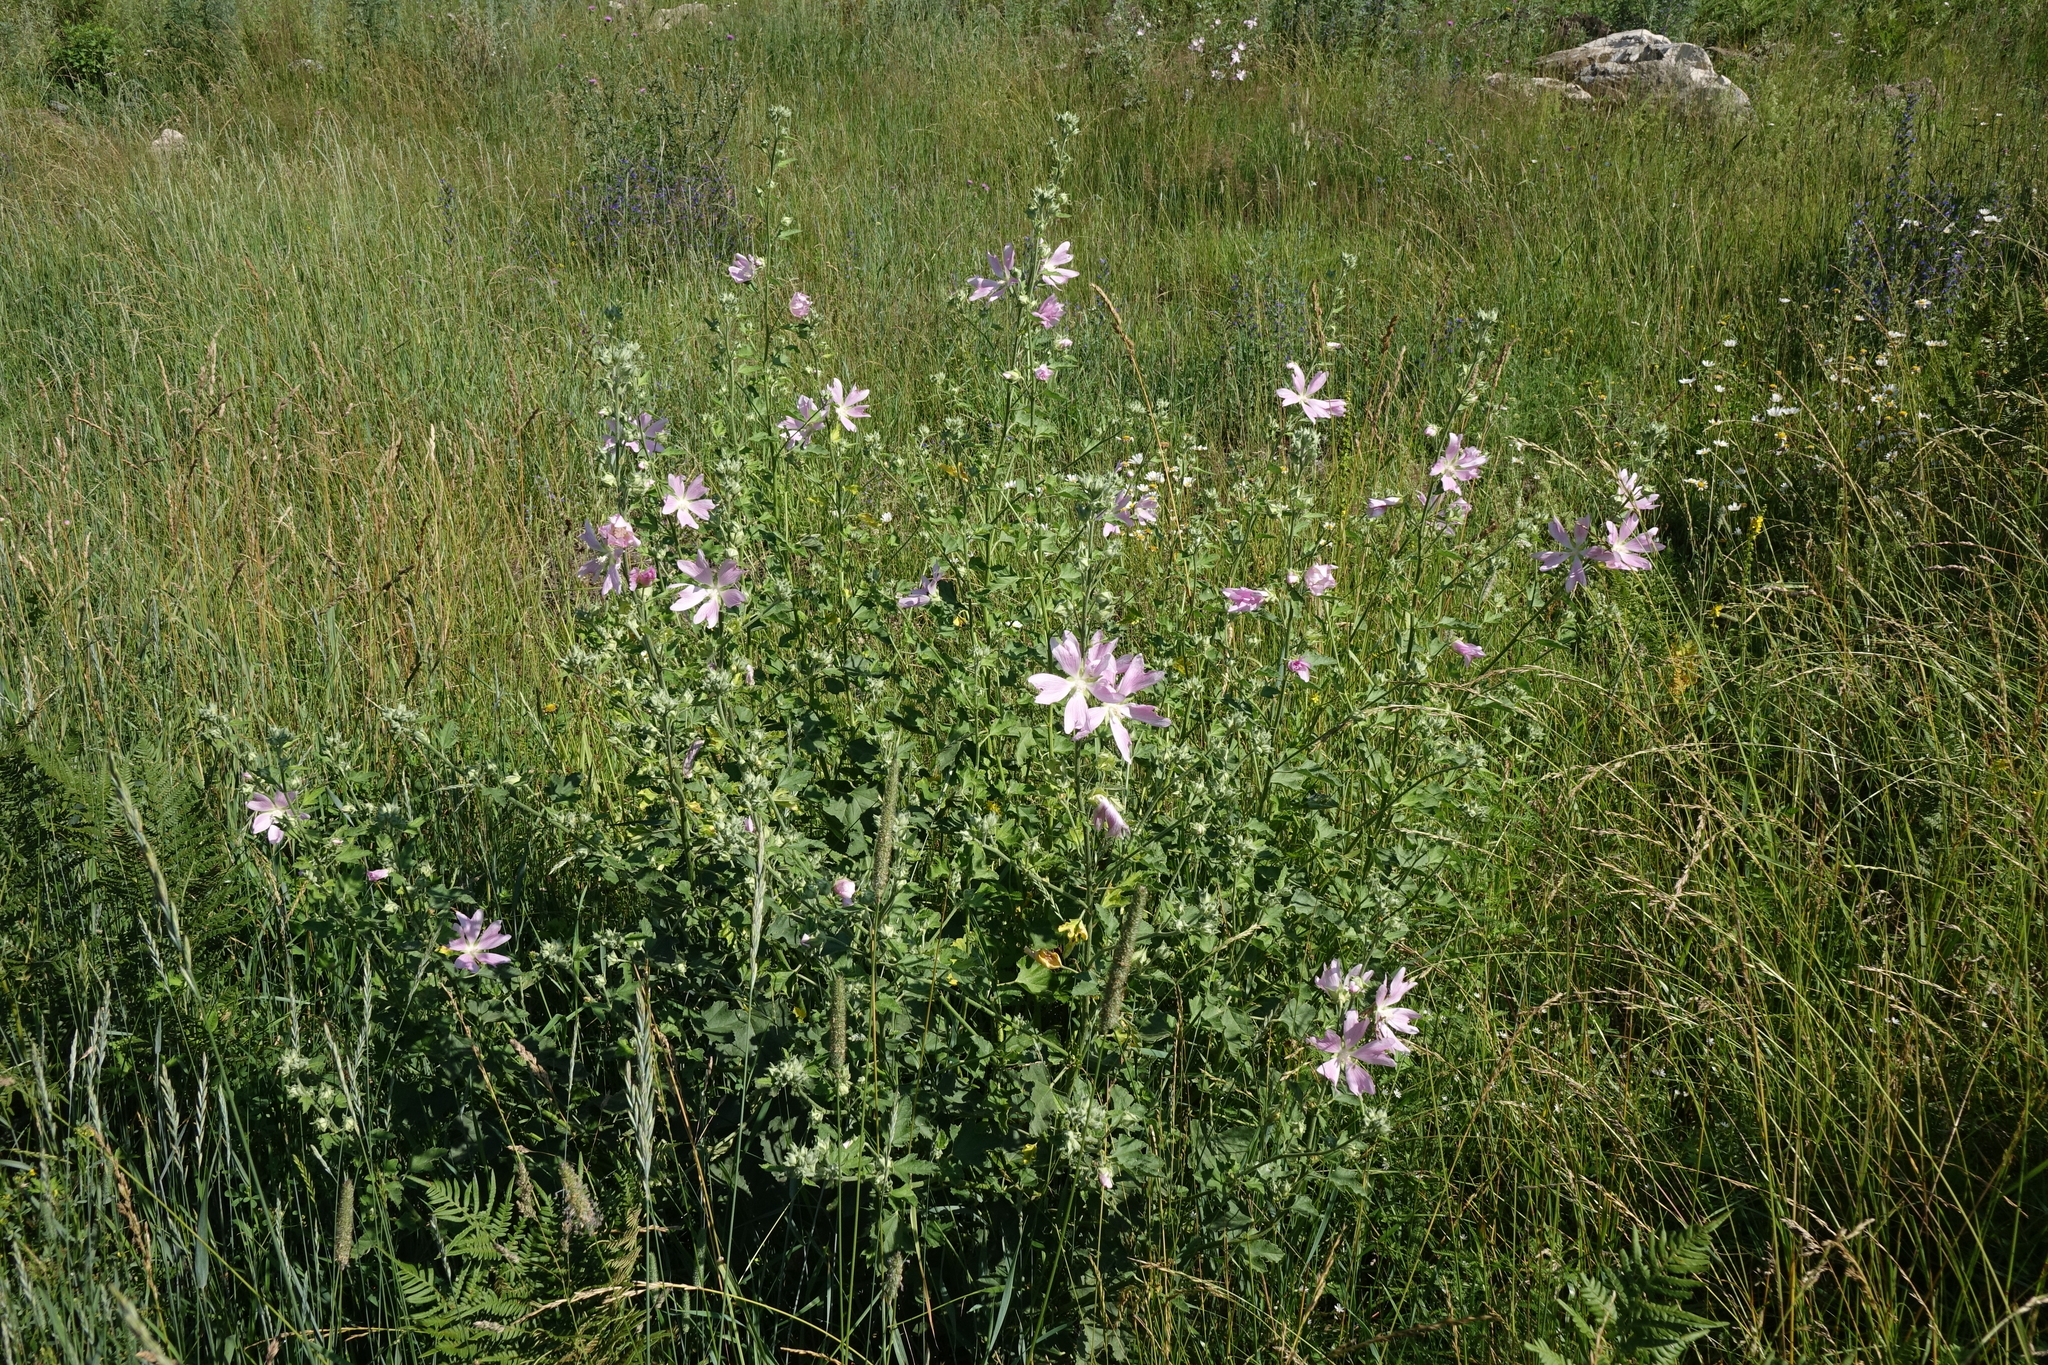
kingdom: Plantae
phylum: Tracheophyta
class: Magnoliopsida
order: Malvales
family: Malvaceae
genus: Malva
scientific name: Malva thuringiaca
